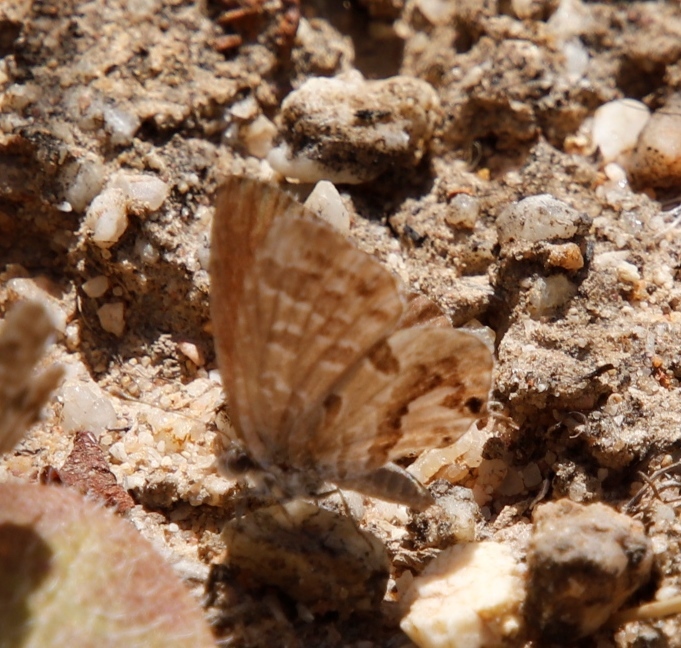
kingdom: Animalia
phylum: Arthropoda
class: Insecta
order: Lepidoptera
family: Lycaenidae
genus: Cacyreus
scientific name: Cacyreus marshalli
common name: Geranium bronze
